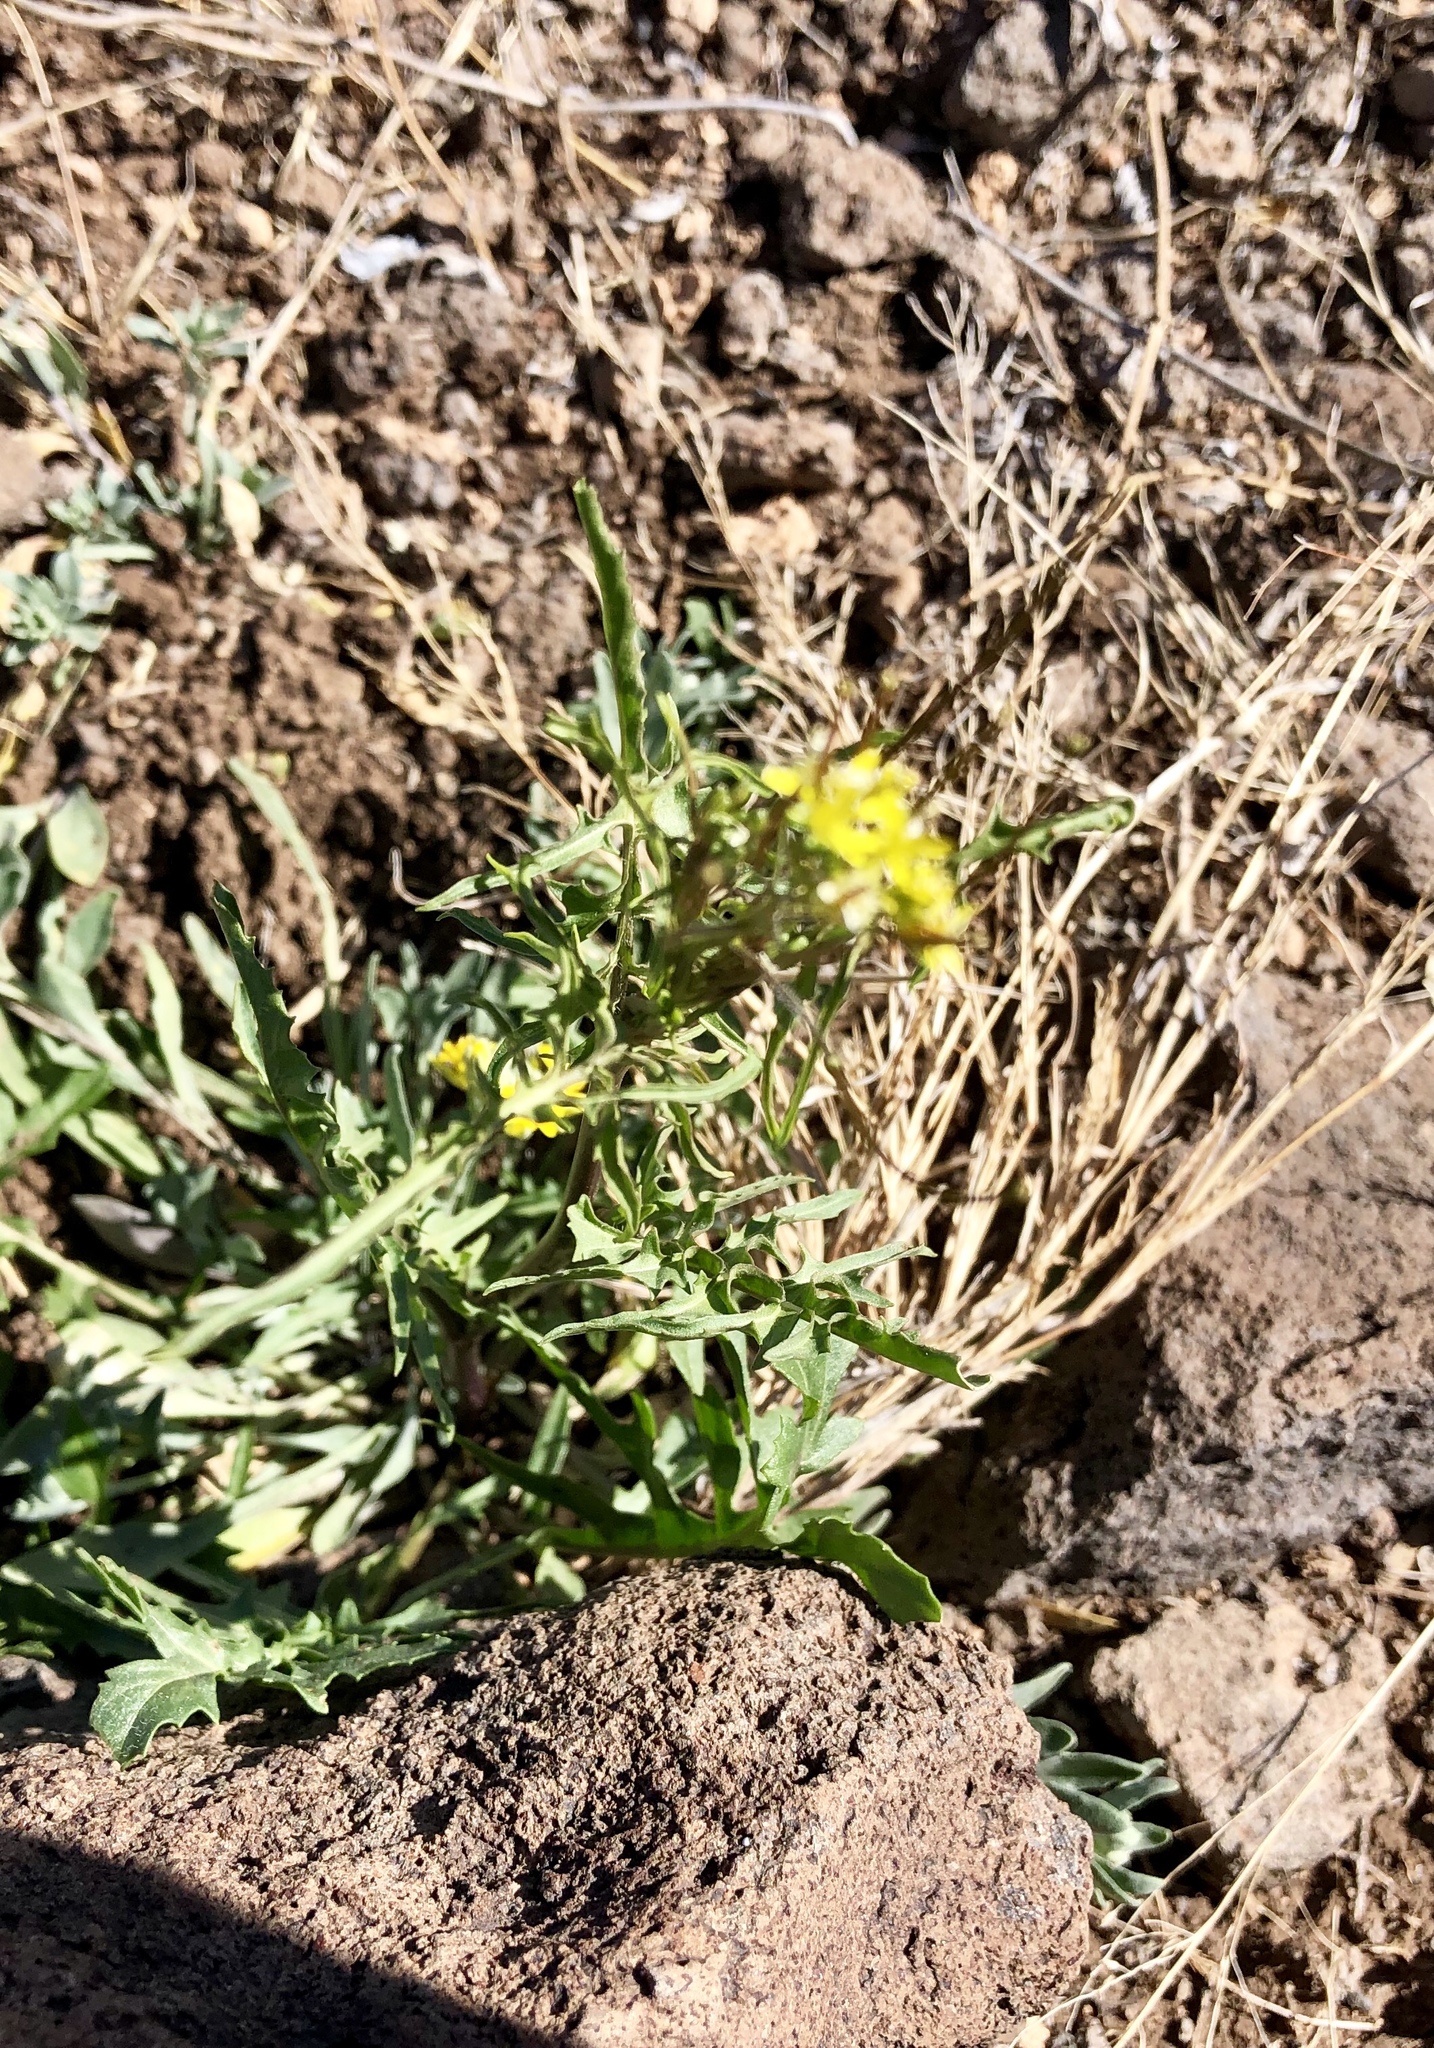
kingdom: Plantae
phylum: Tracheophyta
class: Magnoliopsida
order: Brassicales
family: Brassicaceae
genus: Sisymbrium
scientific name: Sisymbrium irio
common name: London rocket
